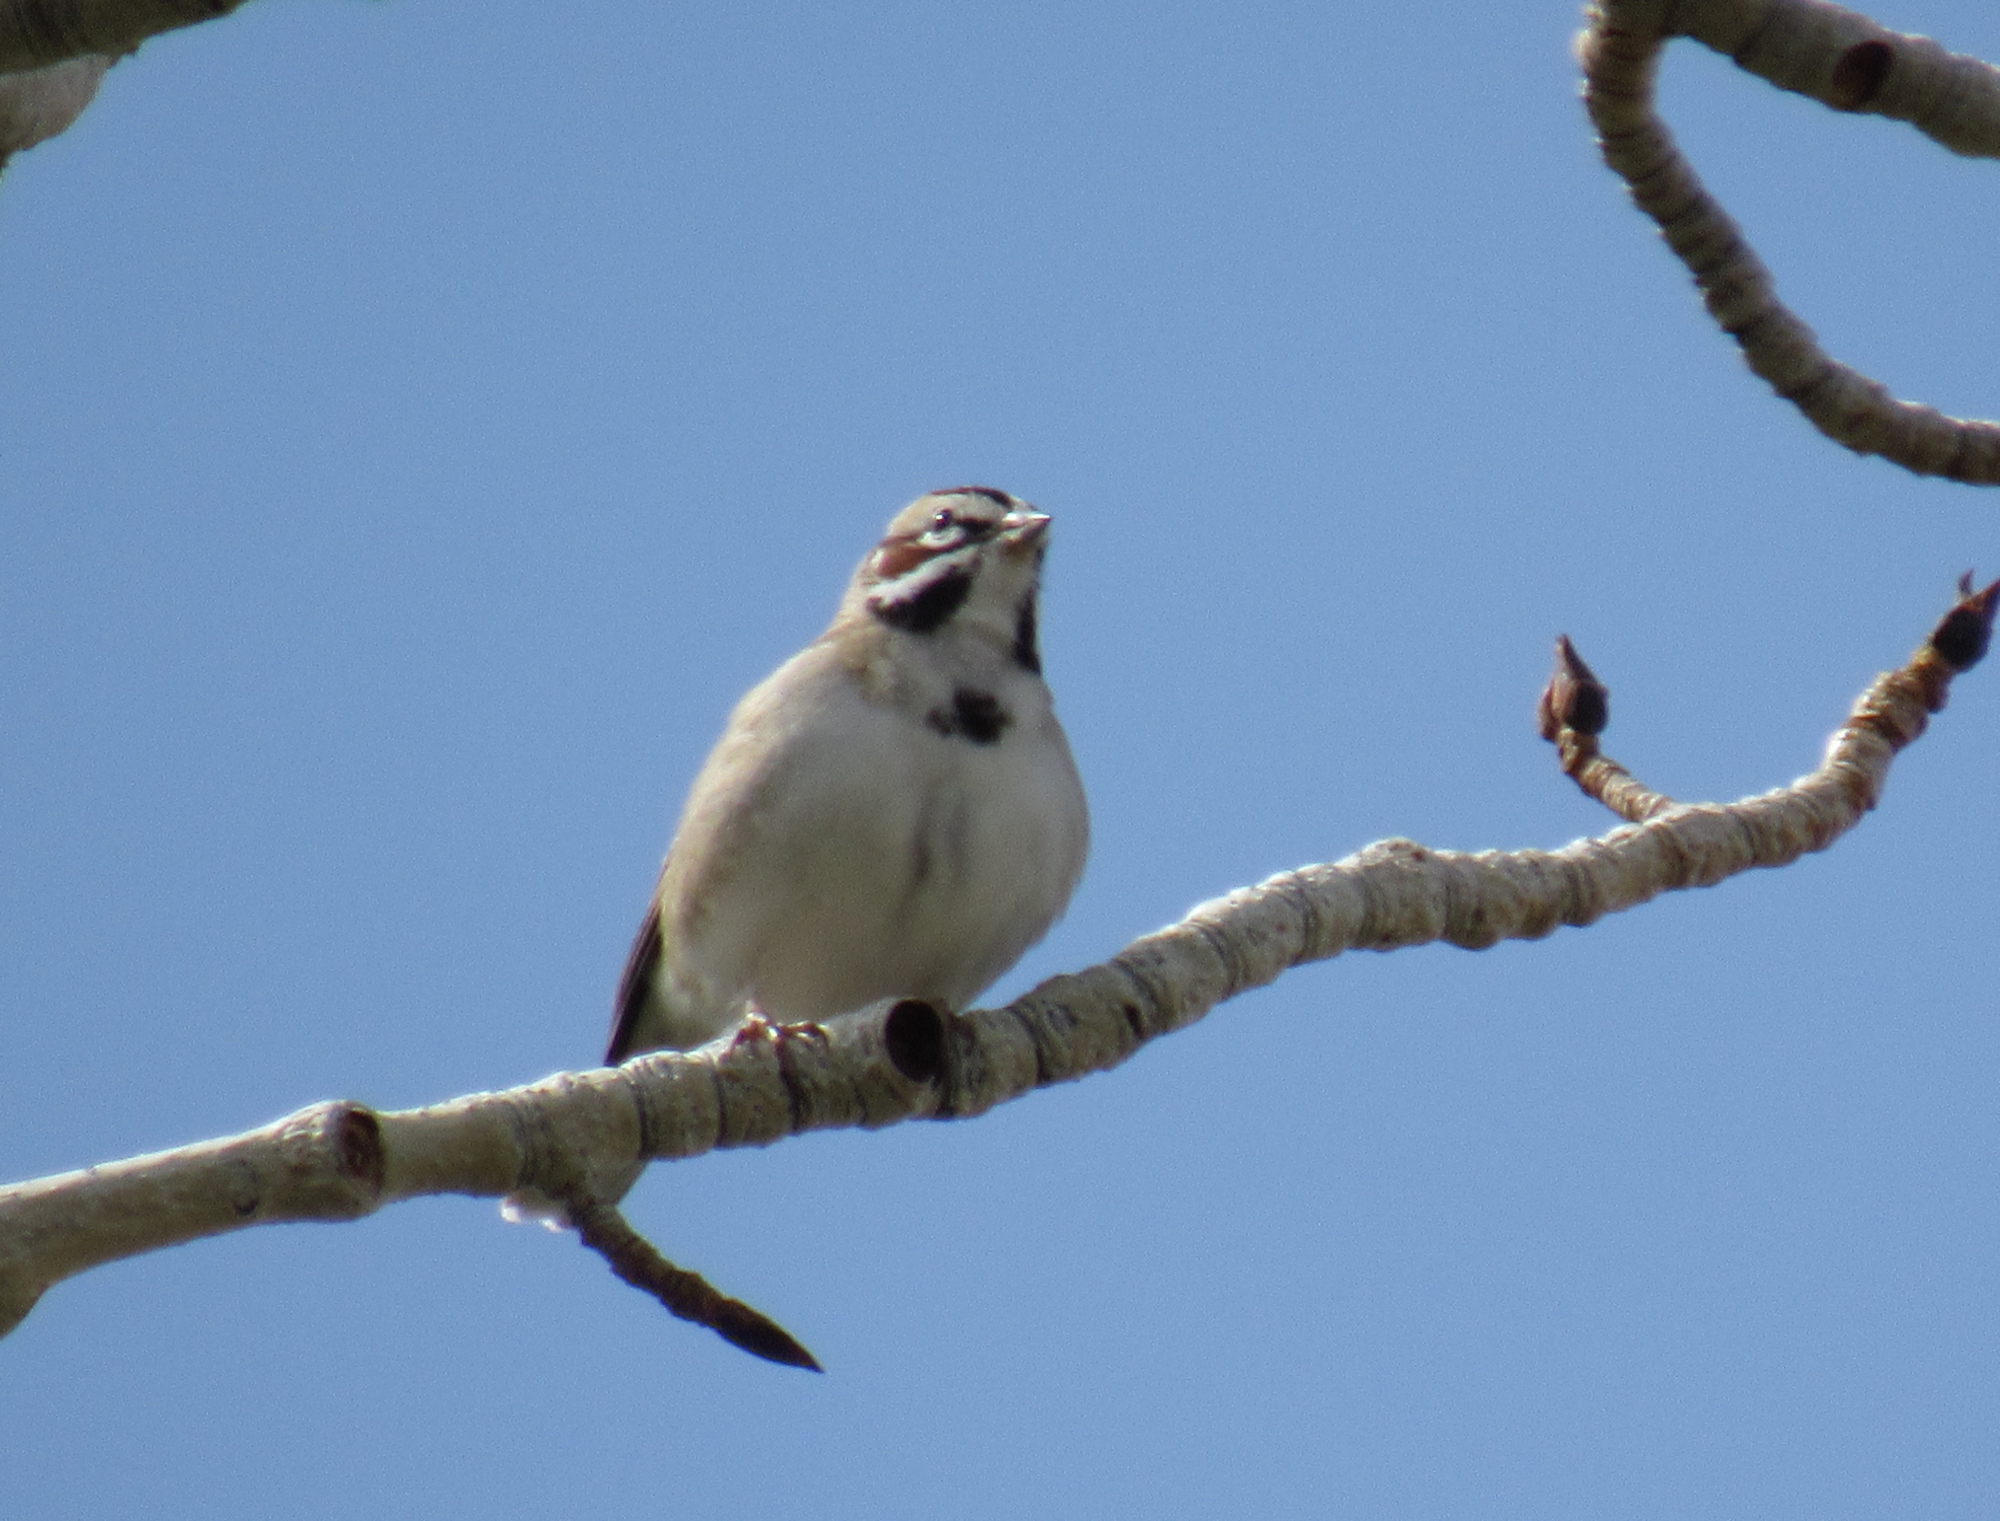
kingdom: Animalia
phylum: Chordata
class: Aves
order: Passeriformes
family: Passerellidae
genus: Chondestes
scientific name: Chondestes grammacus
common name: Lark sparrow
